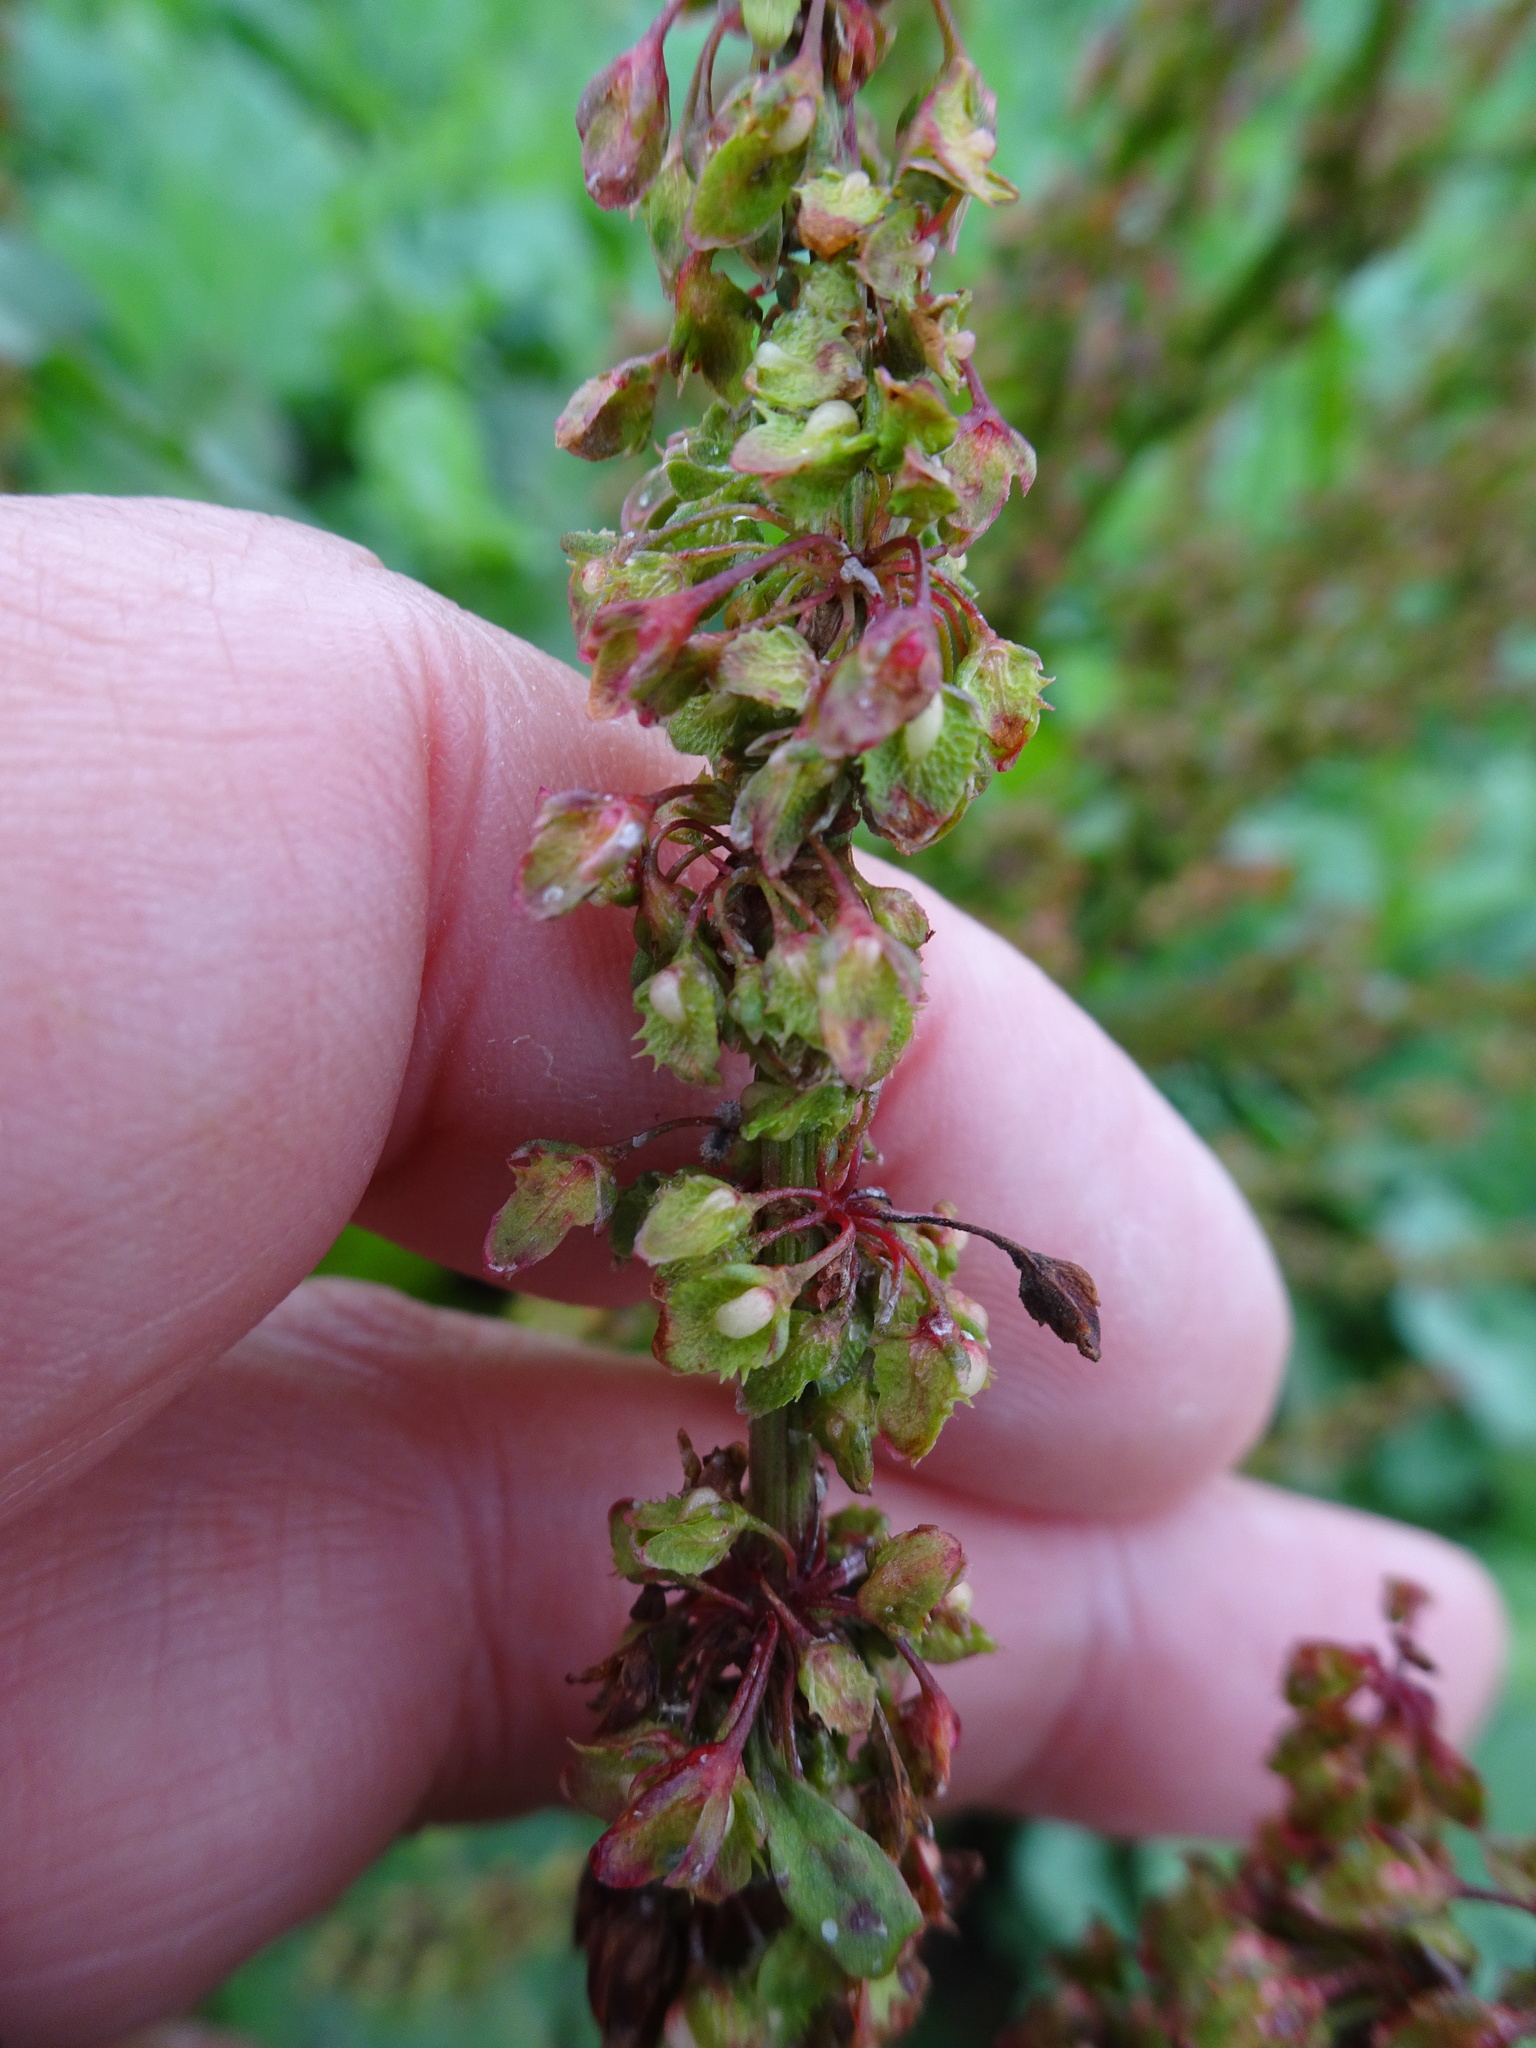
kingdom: Plantae
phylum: Tracheophyta
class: Magnoliopsida
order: Caryophyllales
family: Polygonaceae
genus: Rumex
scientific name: Rumex obtusifolius
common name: Bitter dock
